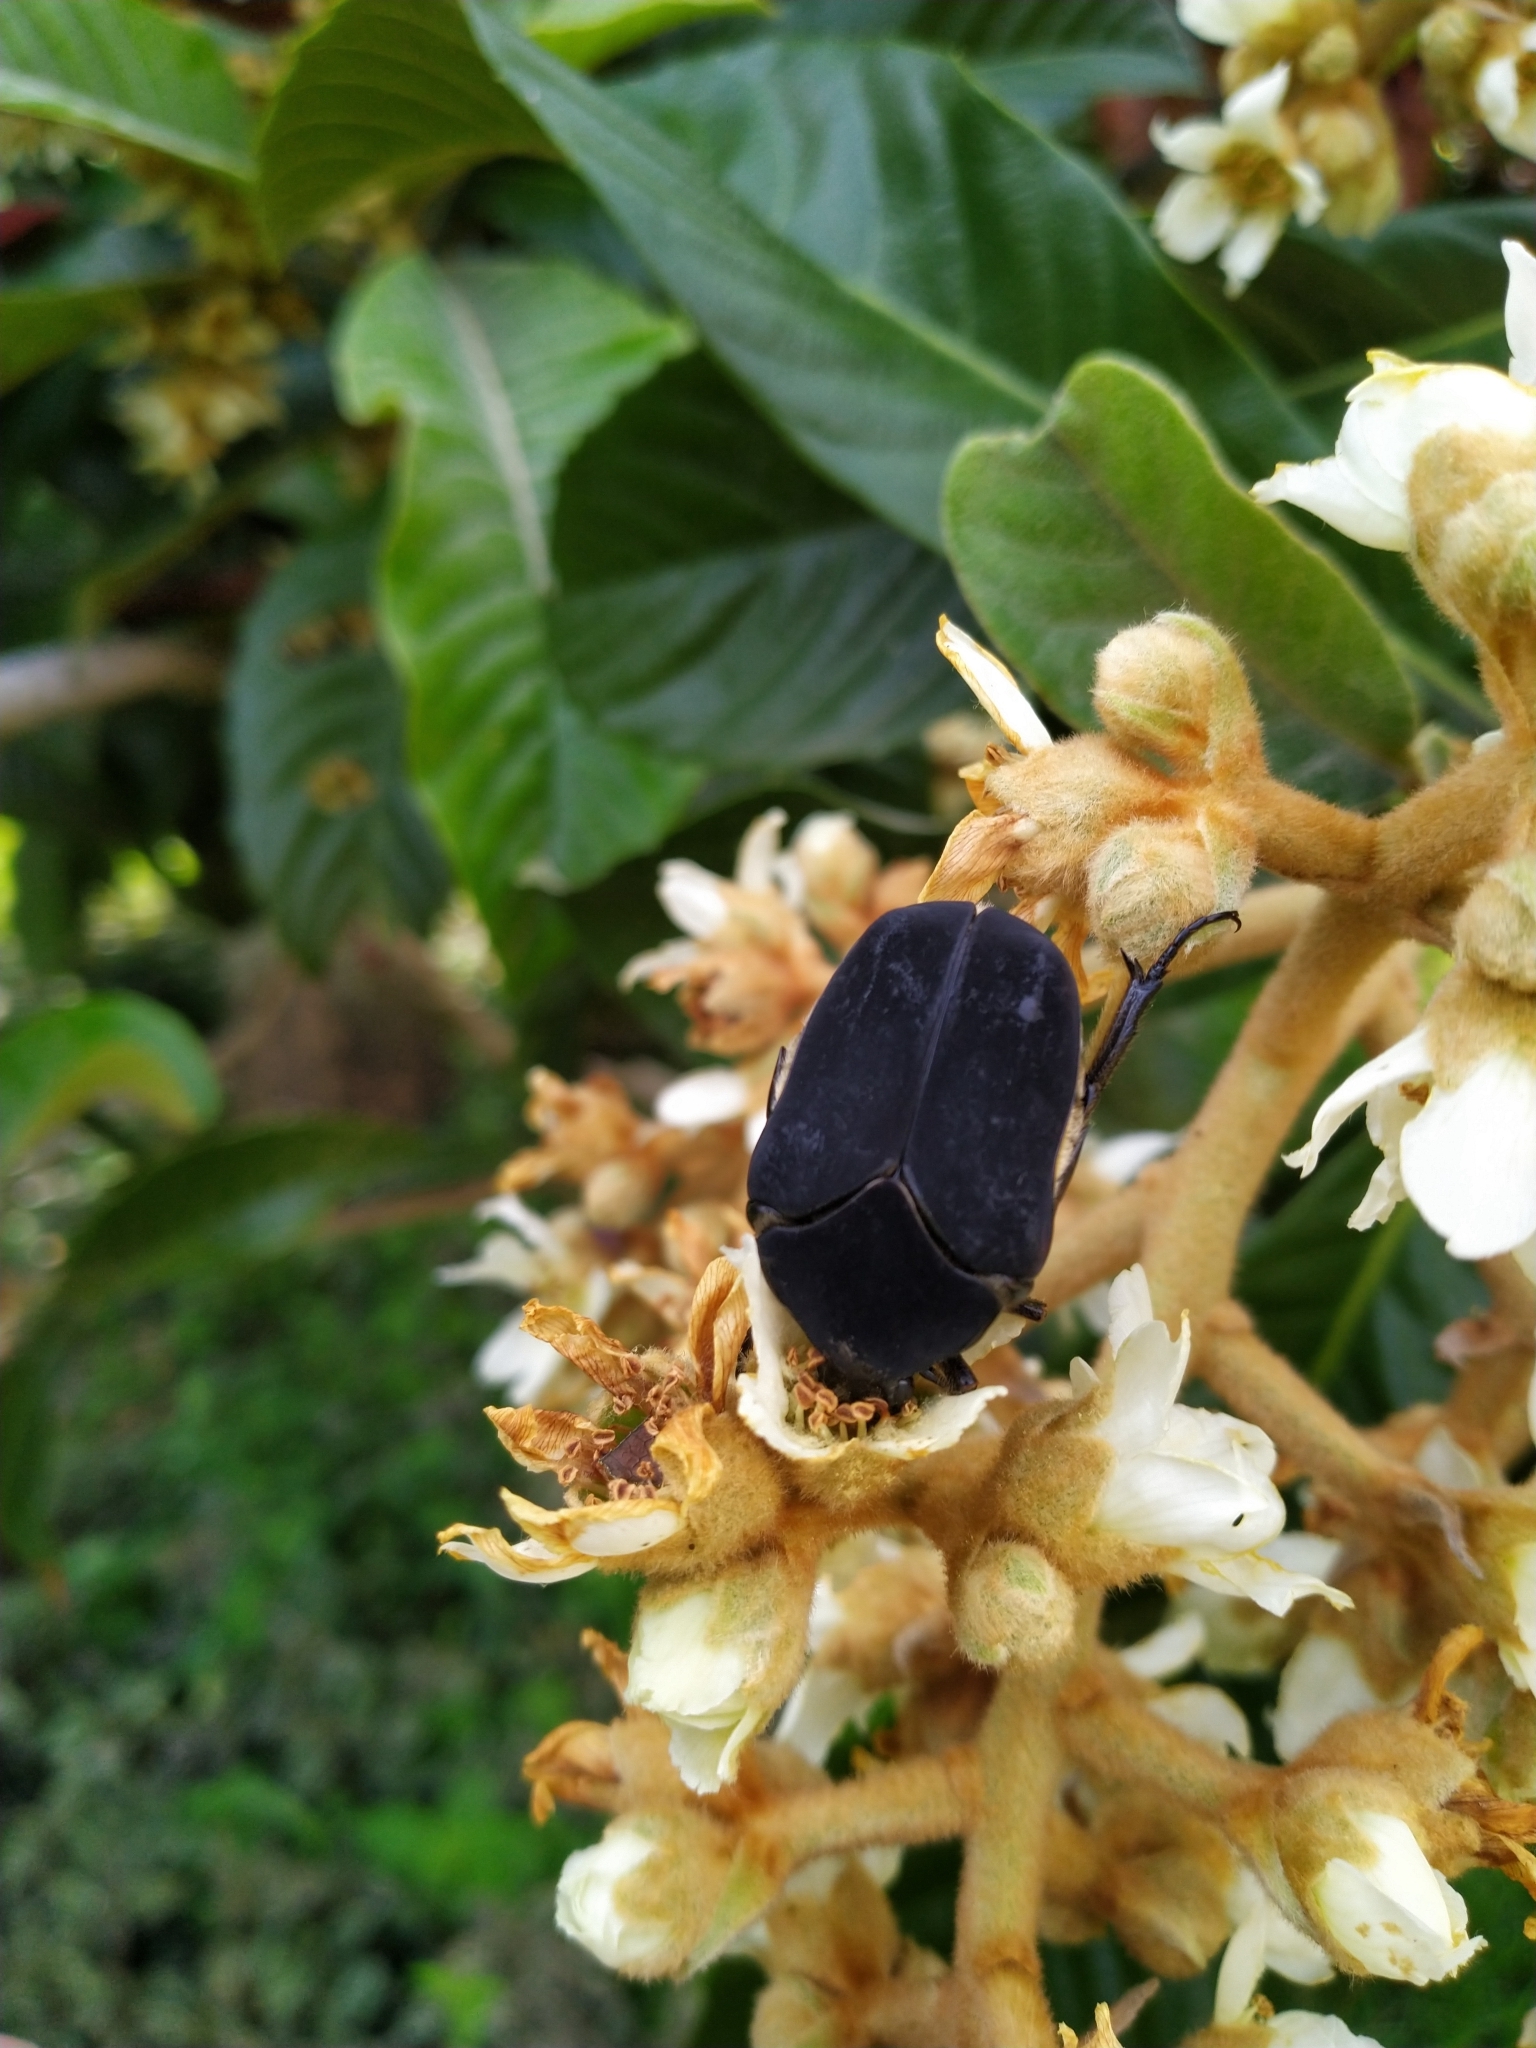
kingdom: Animalia
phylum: Arthropoda
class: Insecta
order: Coleoptera
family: Scarabaeidae
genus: Cotinis
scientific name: Cotinis mutabilis
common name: Figeater beetle
